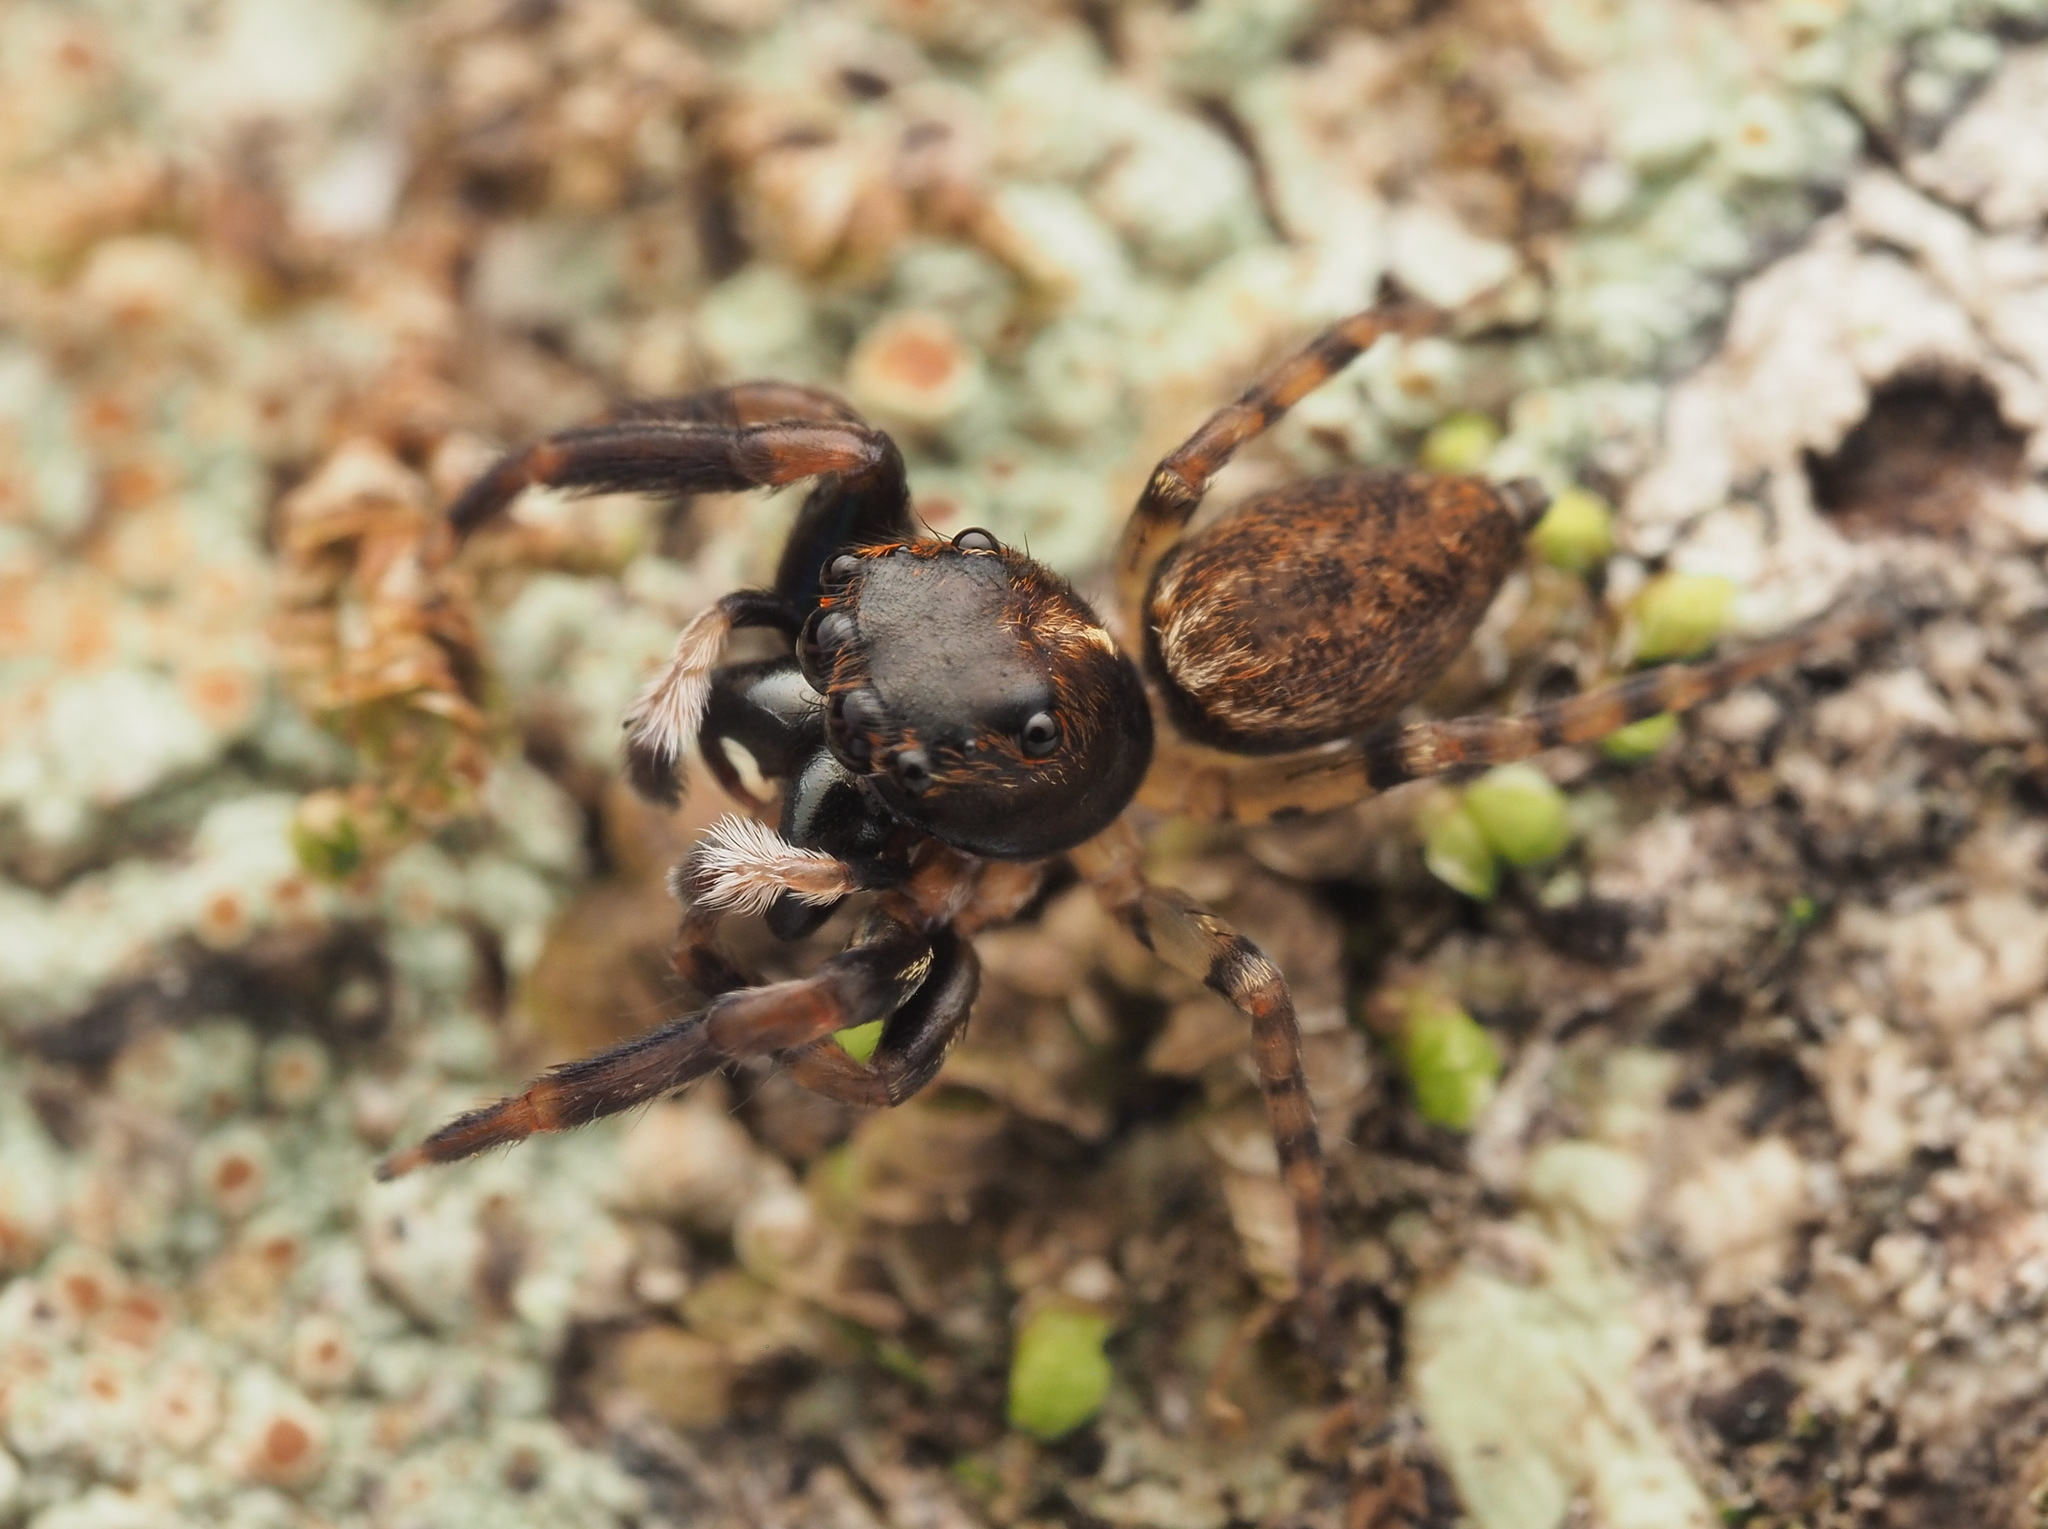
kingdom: Animalia
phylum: Arthropoda
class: Arachnida
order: Araneae
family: Salticidae
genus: Sondra
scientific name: Sondra nepenthicola
